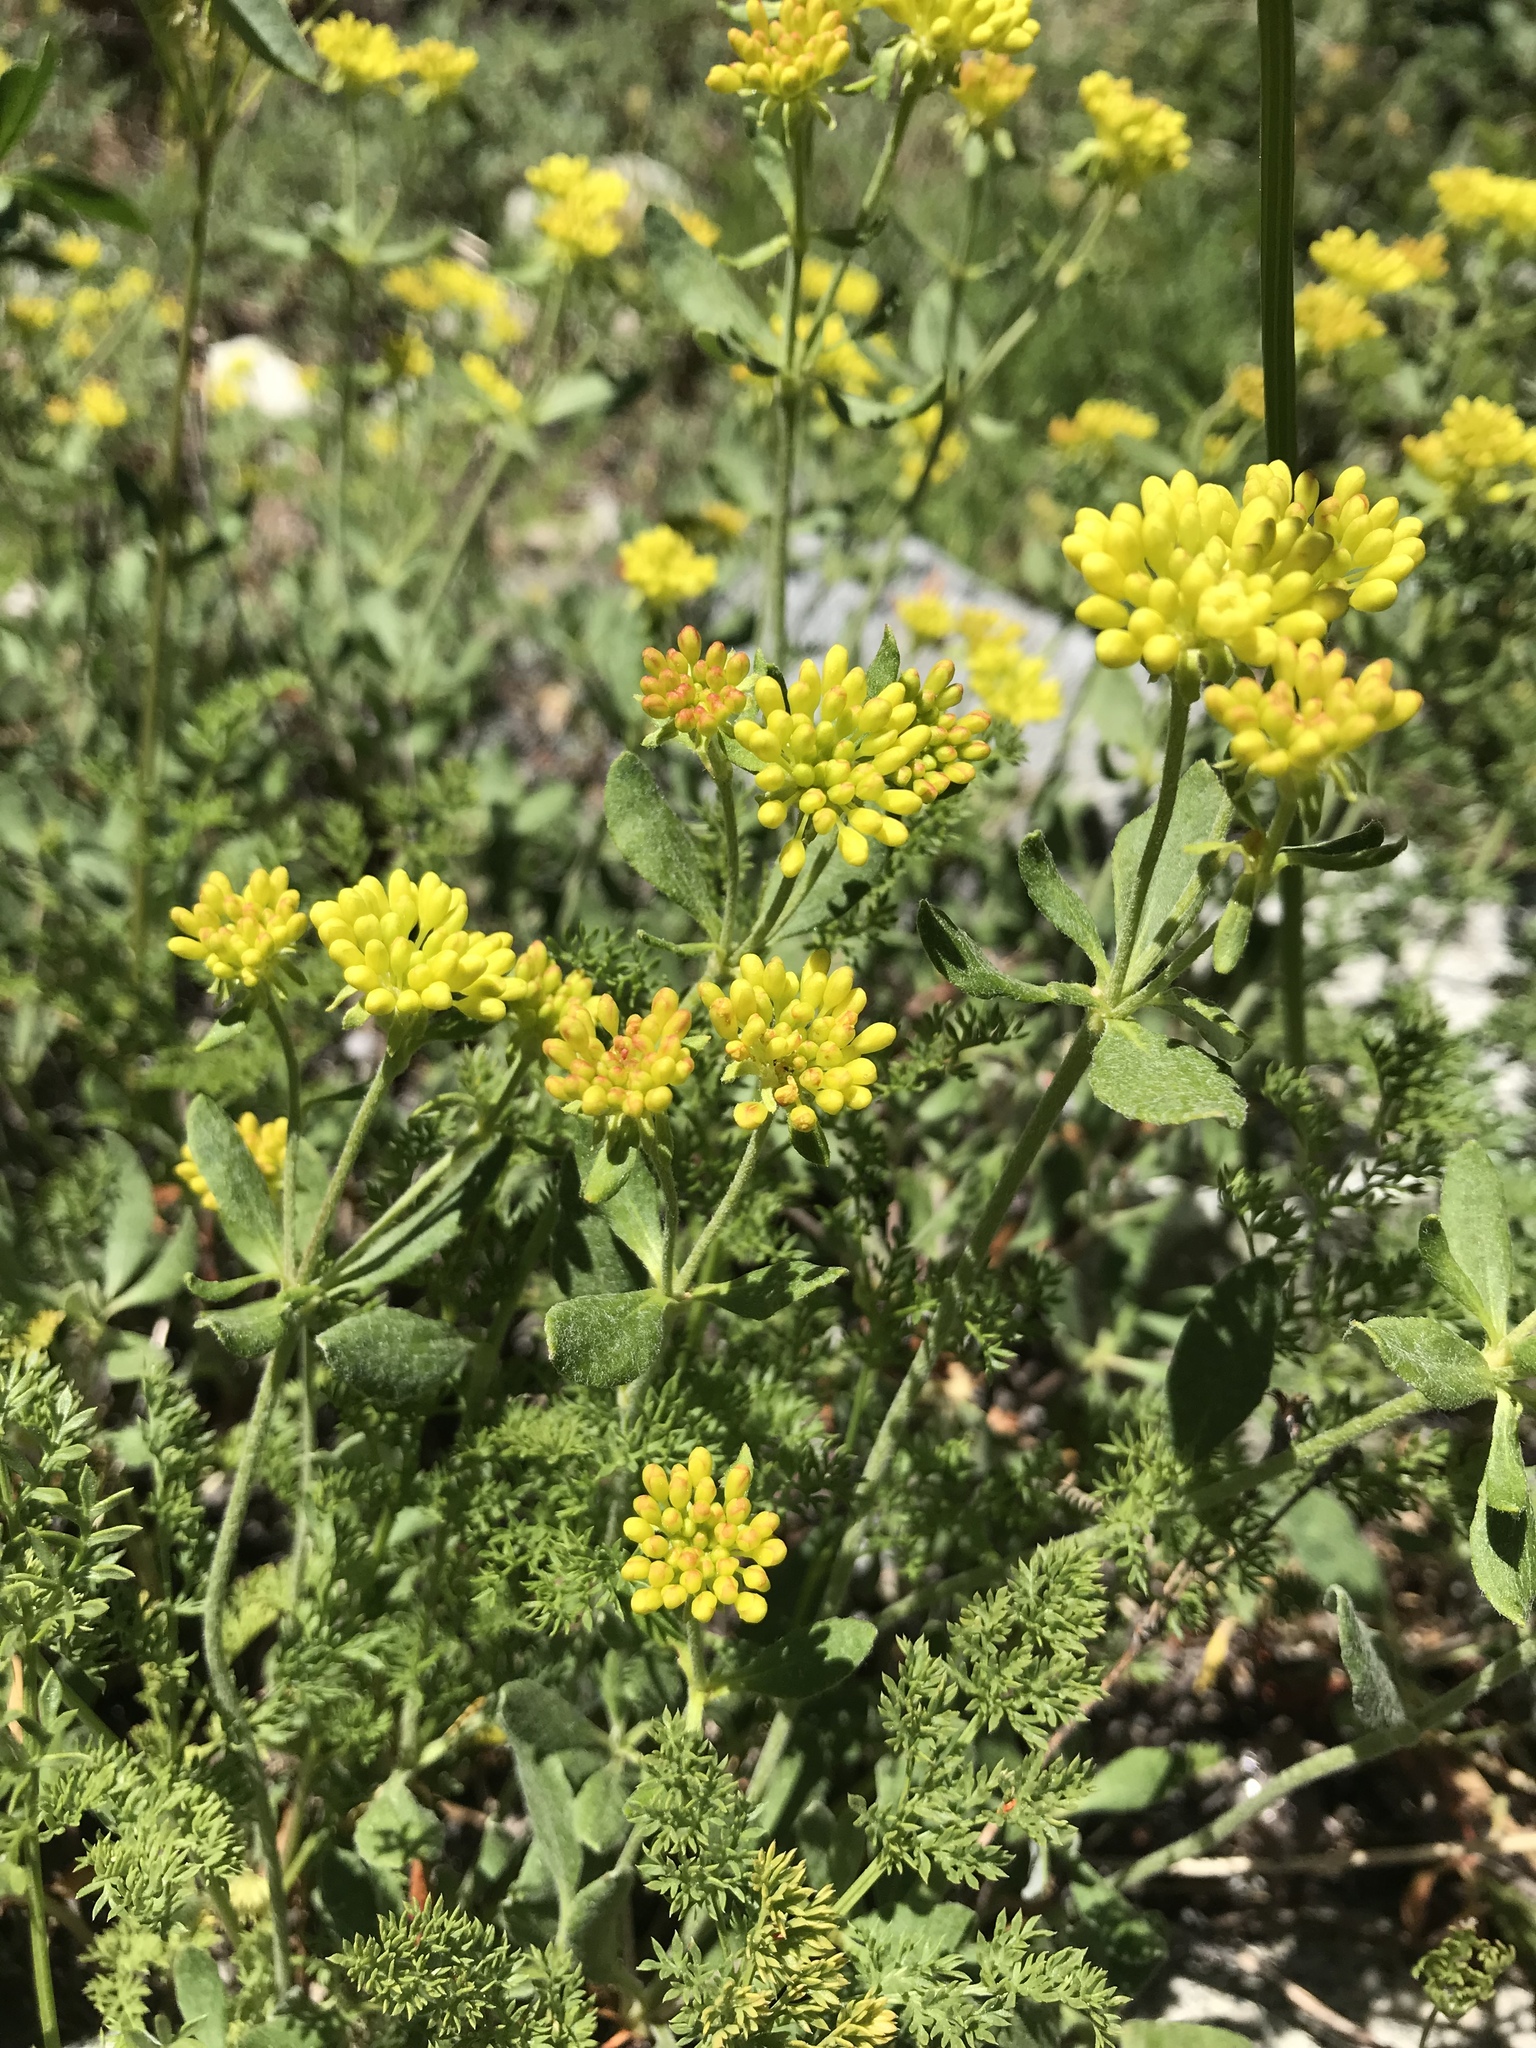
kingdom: Plantae
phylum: Tracheophyta
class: Magnoliopsida
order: Caryophyllales
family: Polygonaceae
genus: Eriogonum
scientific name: Eriogonum umbellatum
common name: Sulfur-buckwheat
